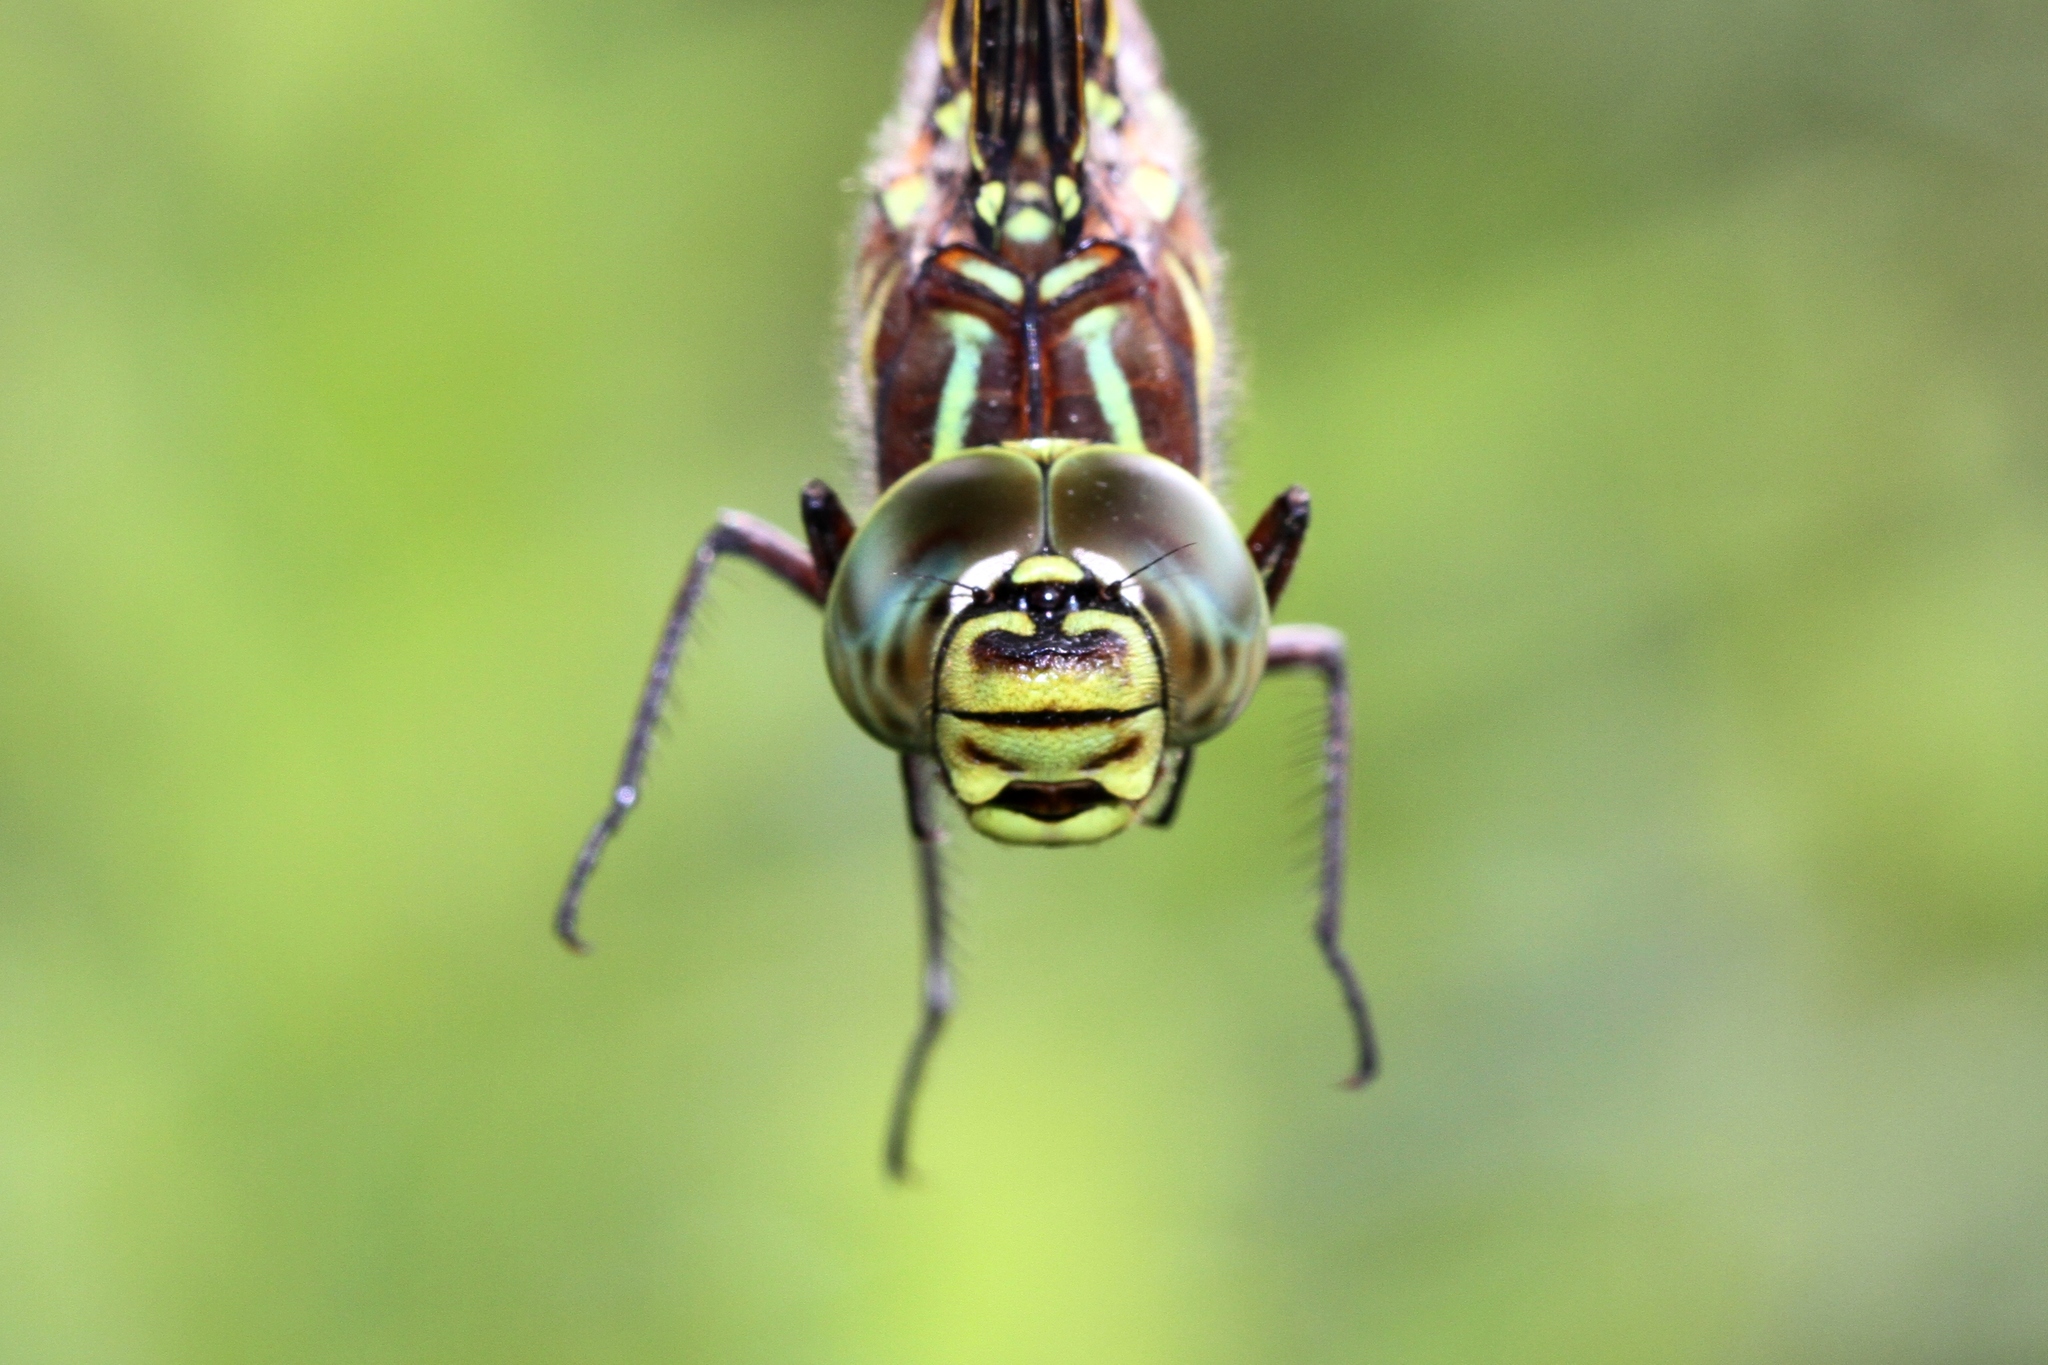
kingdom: Animalia
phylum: Arthropoda
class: Insecta
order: Odonata
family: Aeshnidae
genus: Aeshna
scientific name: Aeshna juncea
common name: Moorland hawker
